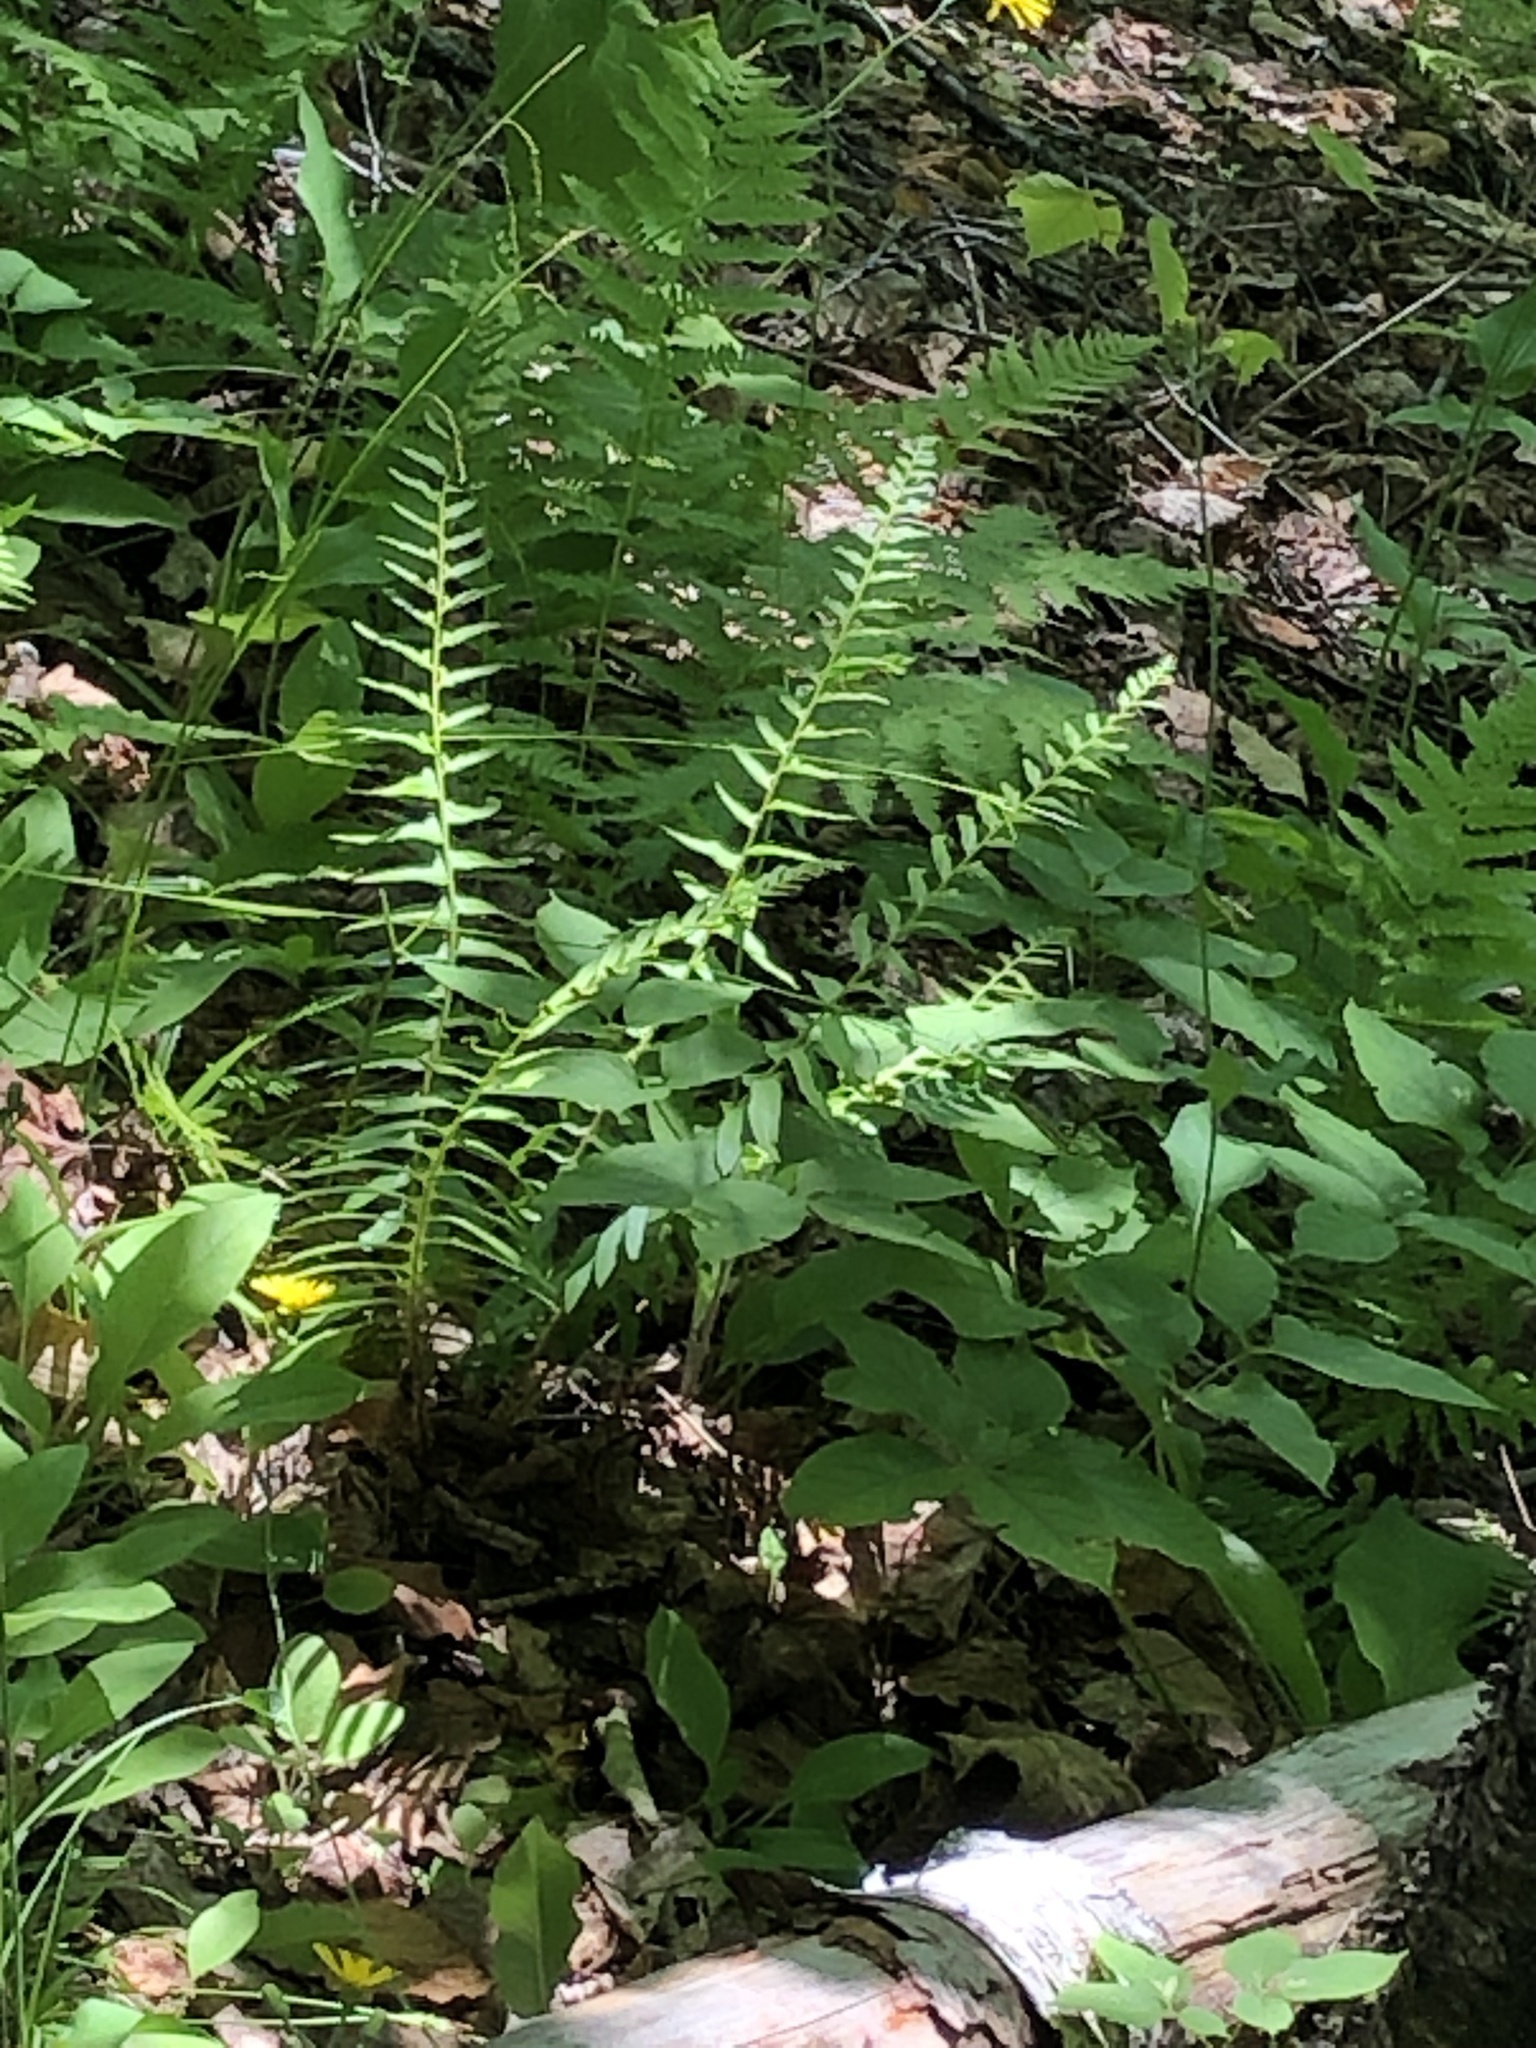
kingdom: Plantae
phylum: Tracheophyta
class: Polypodiopsida
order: Polypodiales
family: Dryopteridaceae
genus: Polystichum
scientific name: Polystichum acrostichoides
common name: Christmas fern
